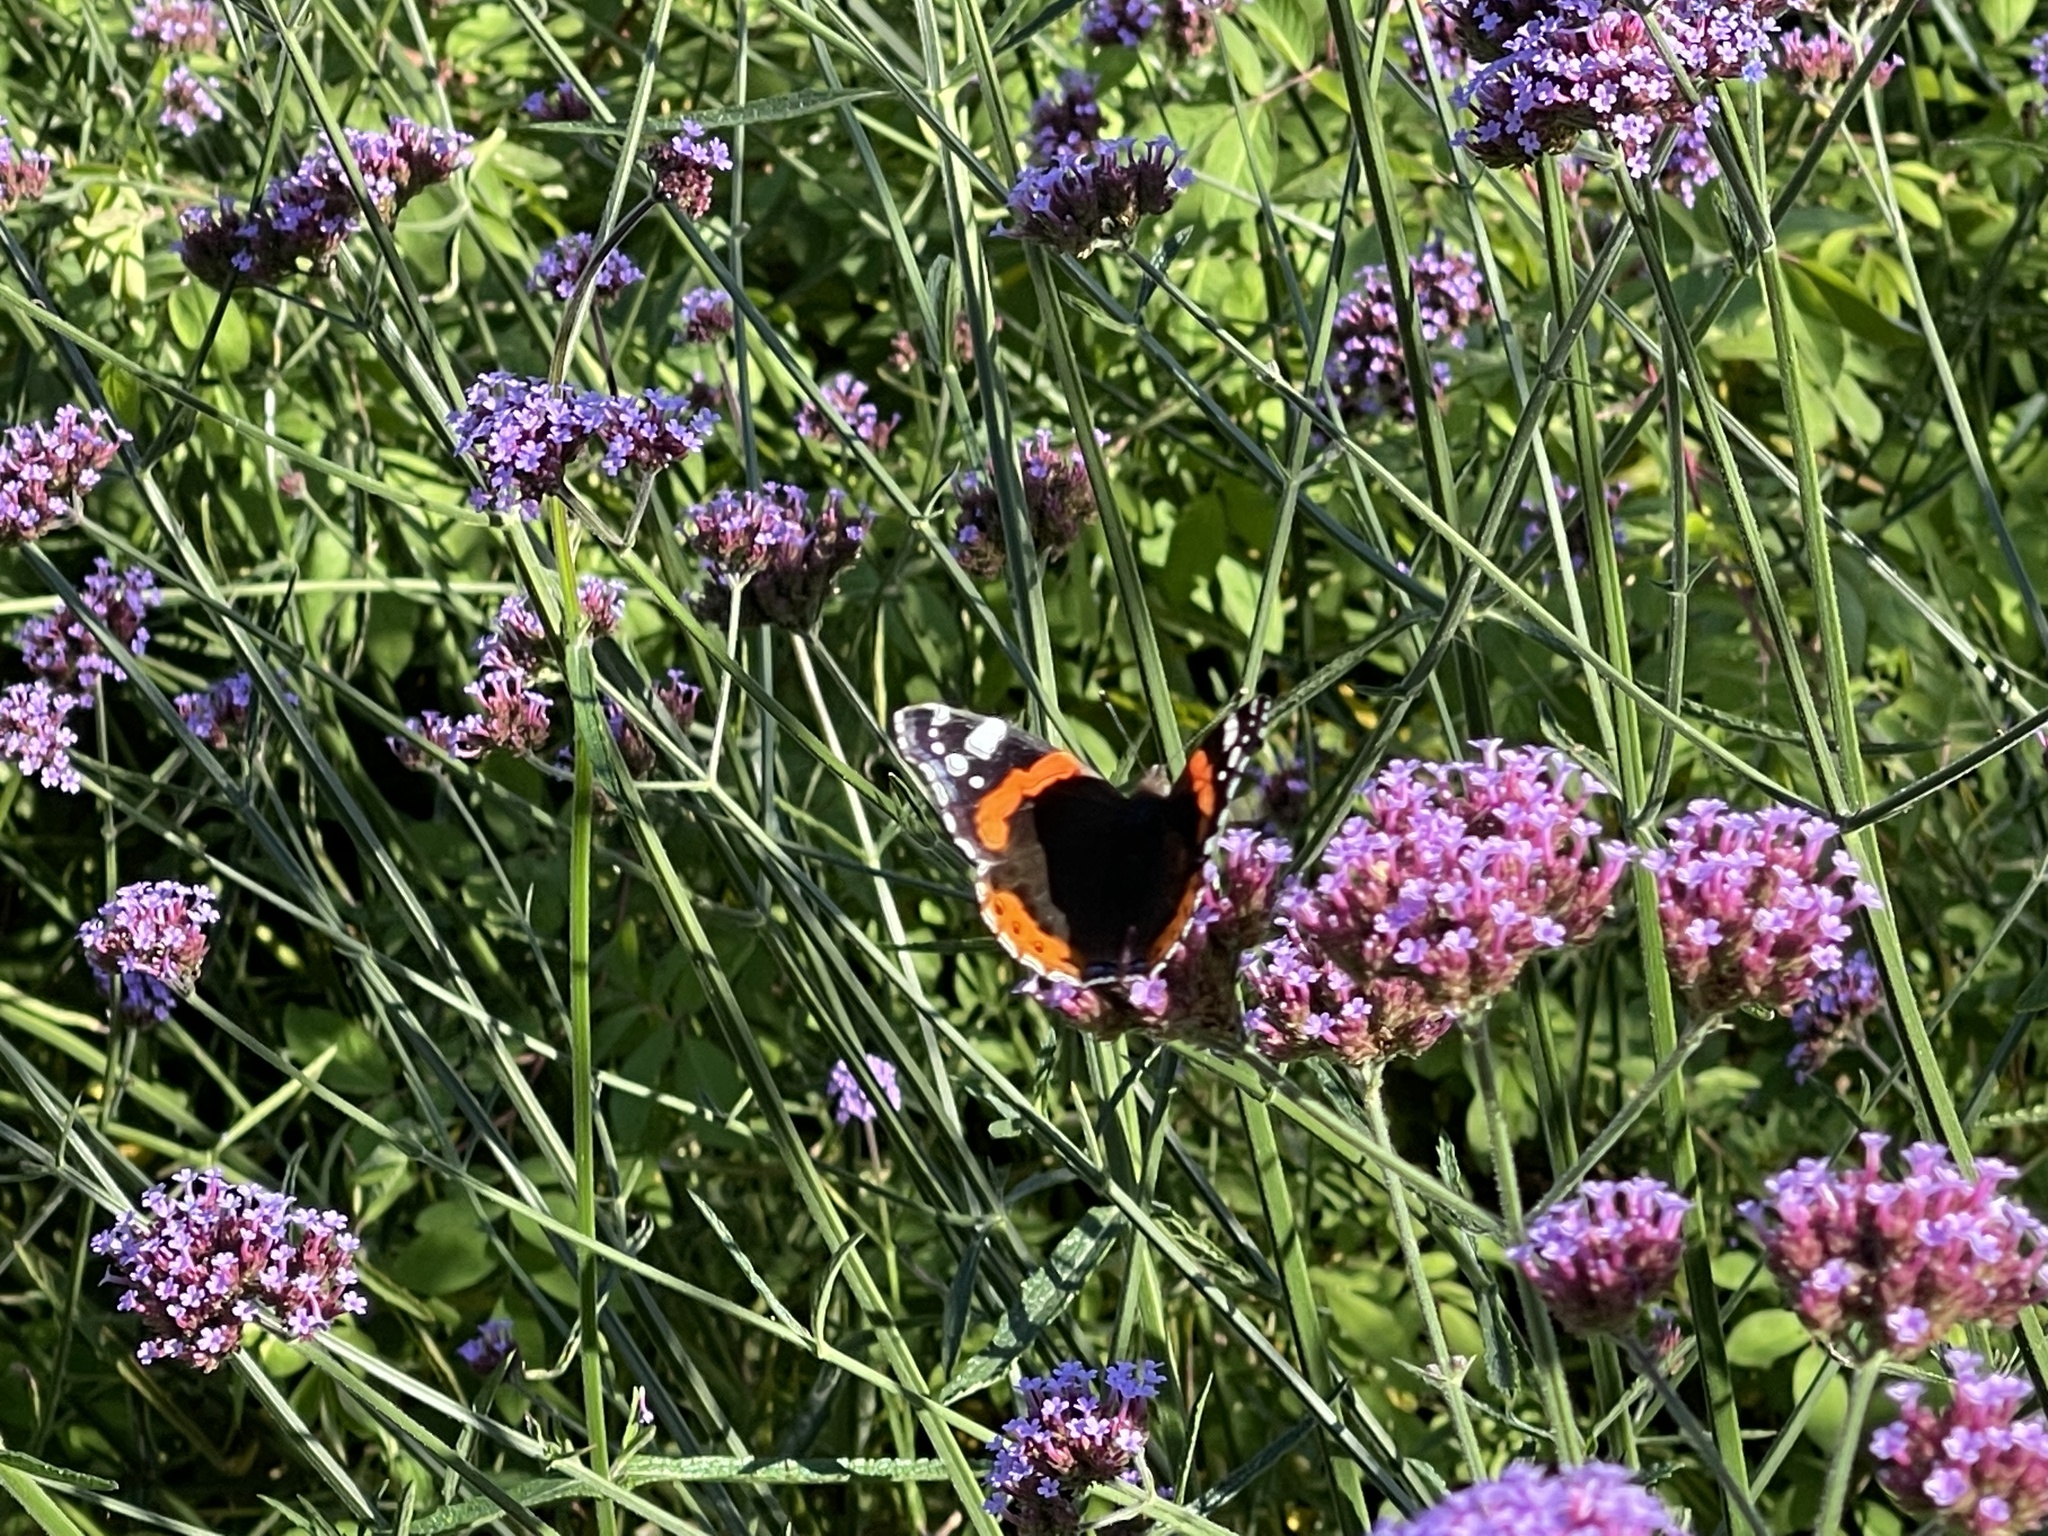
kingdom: Animalia
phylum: Arthropoda
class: Insecta
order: Lepidoptera
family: Nymphalidae
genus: Vanessa
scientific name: Vanessa atalanta
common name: Red admiral
